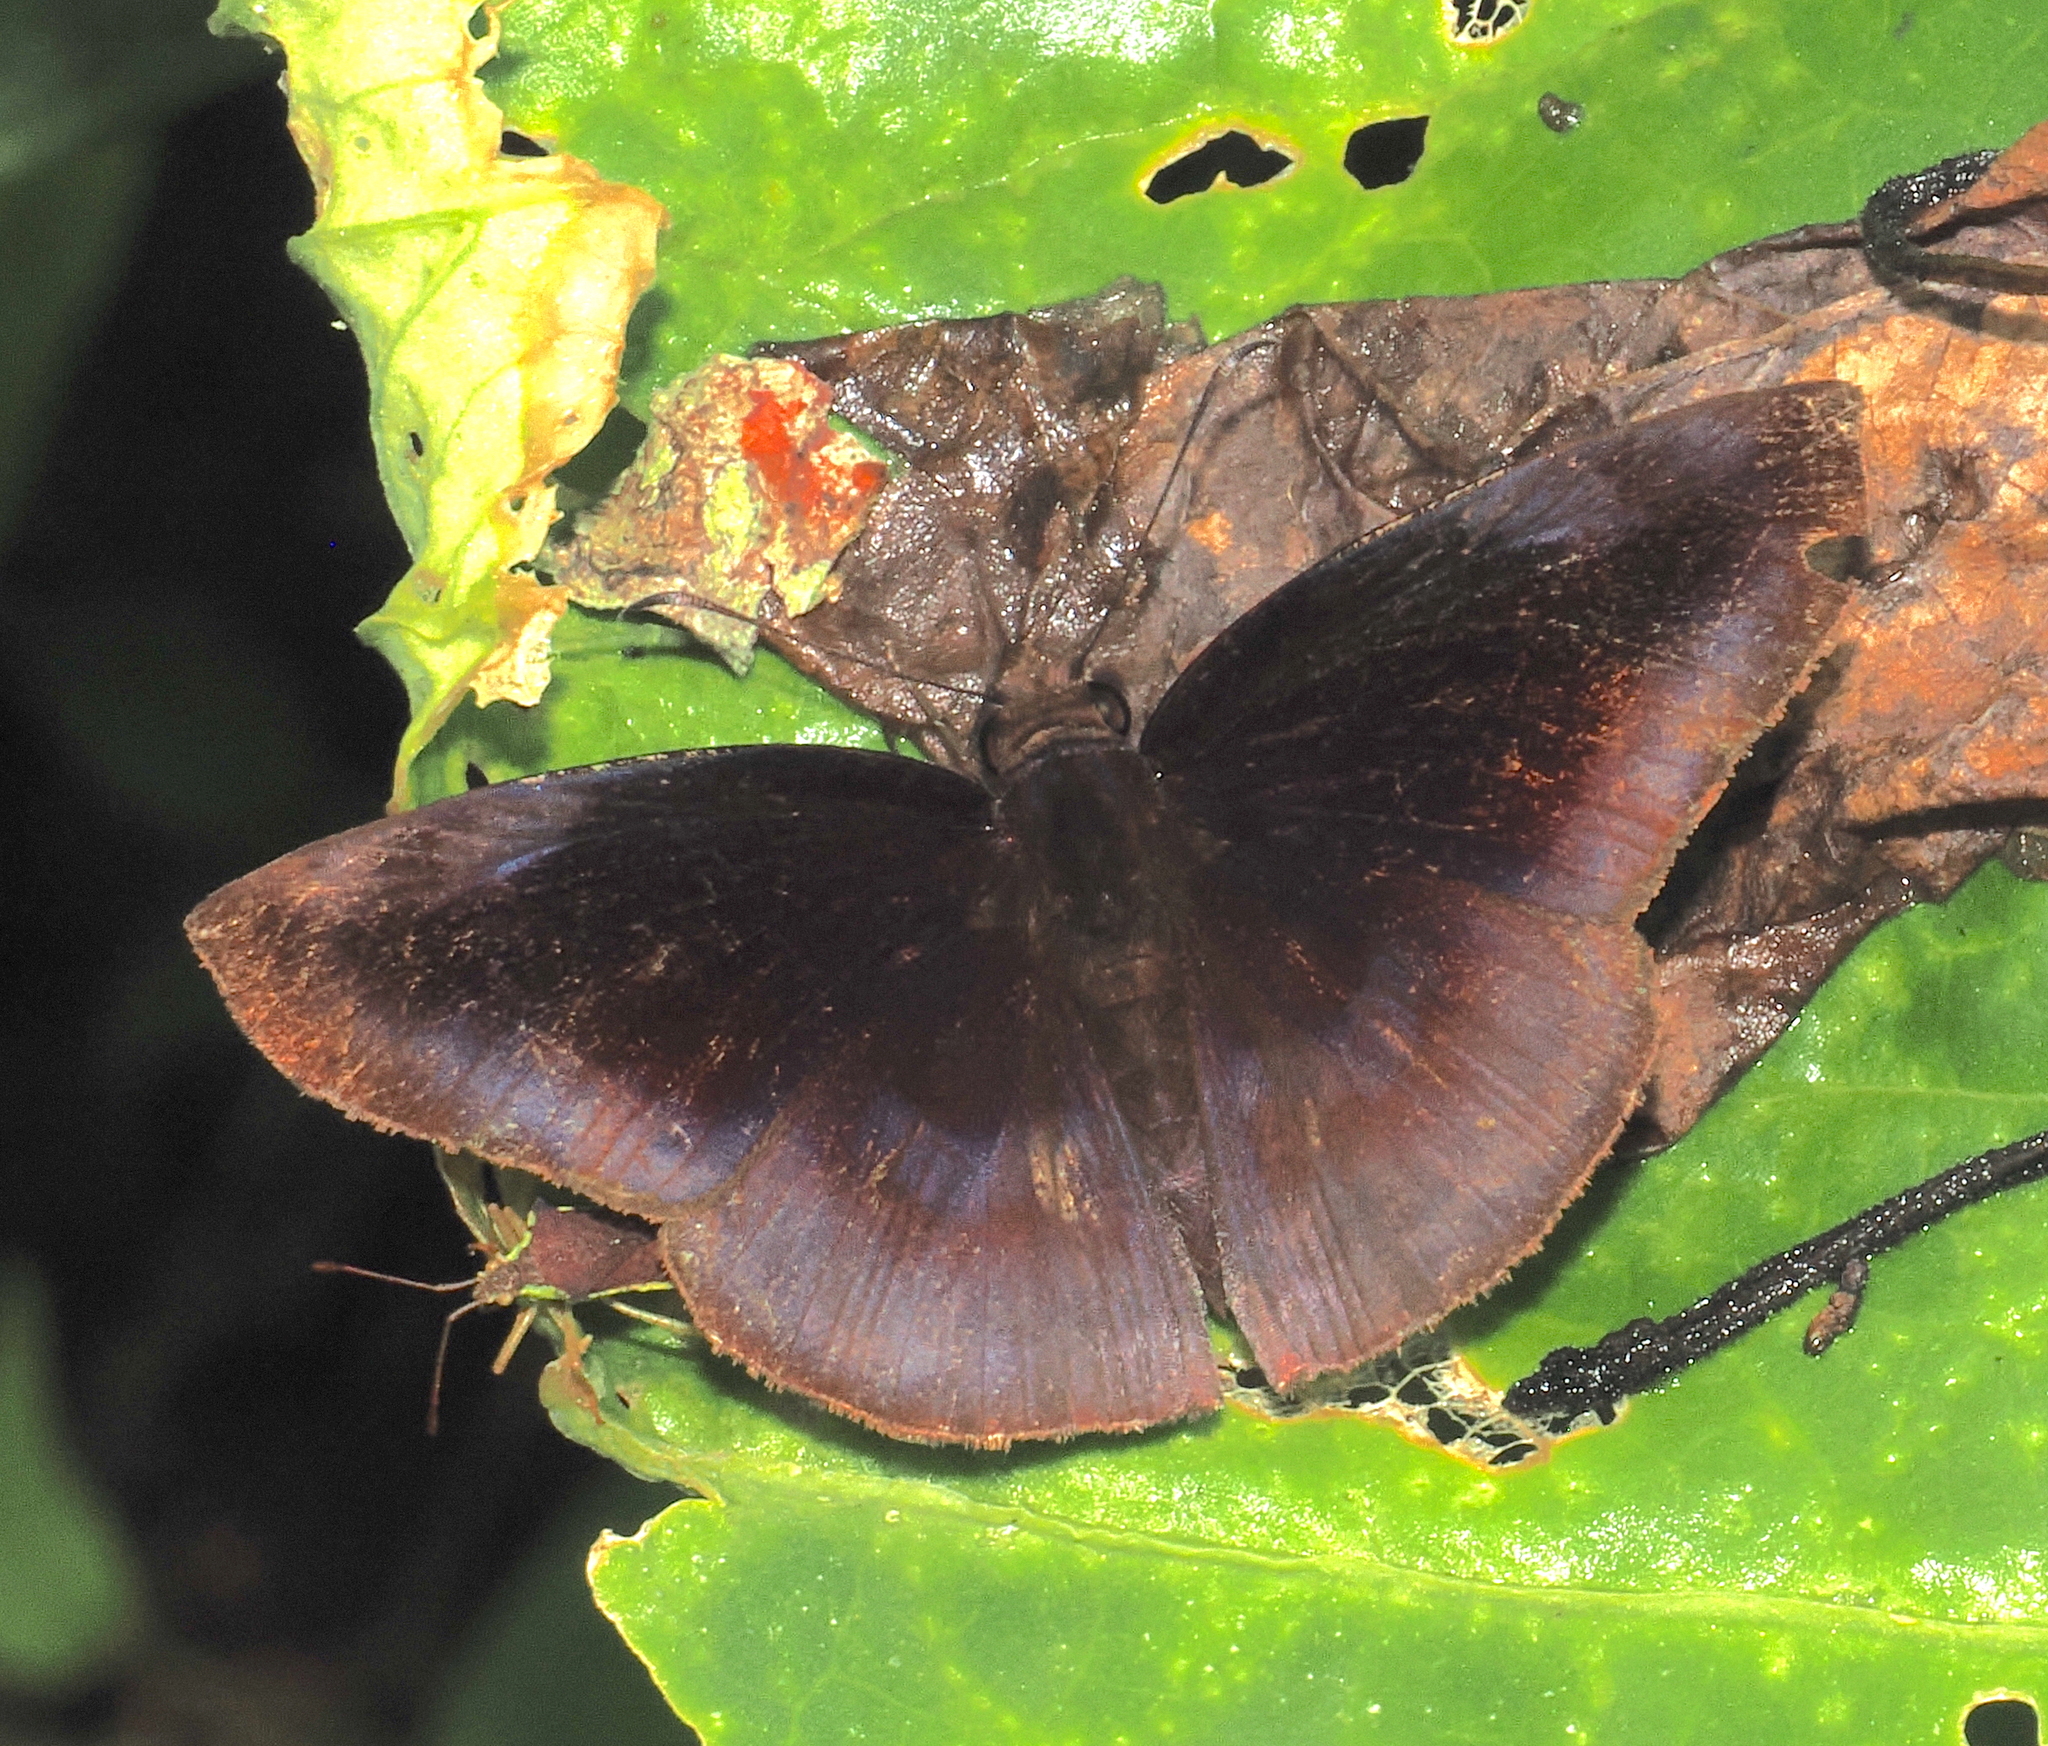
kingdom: Animalia
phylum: Arthropoda
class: Insecta
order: Lepidoptera
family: Hesperiidae
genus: Anastrus
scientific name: Anastrus meliboea
